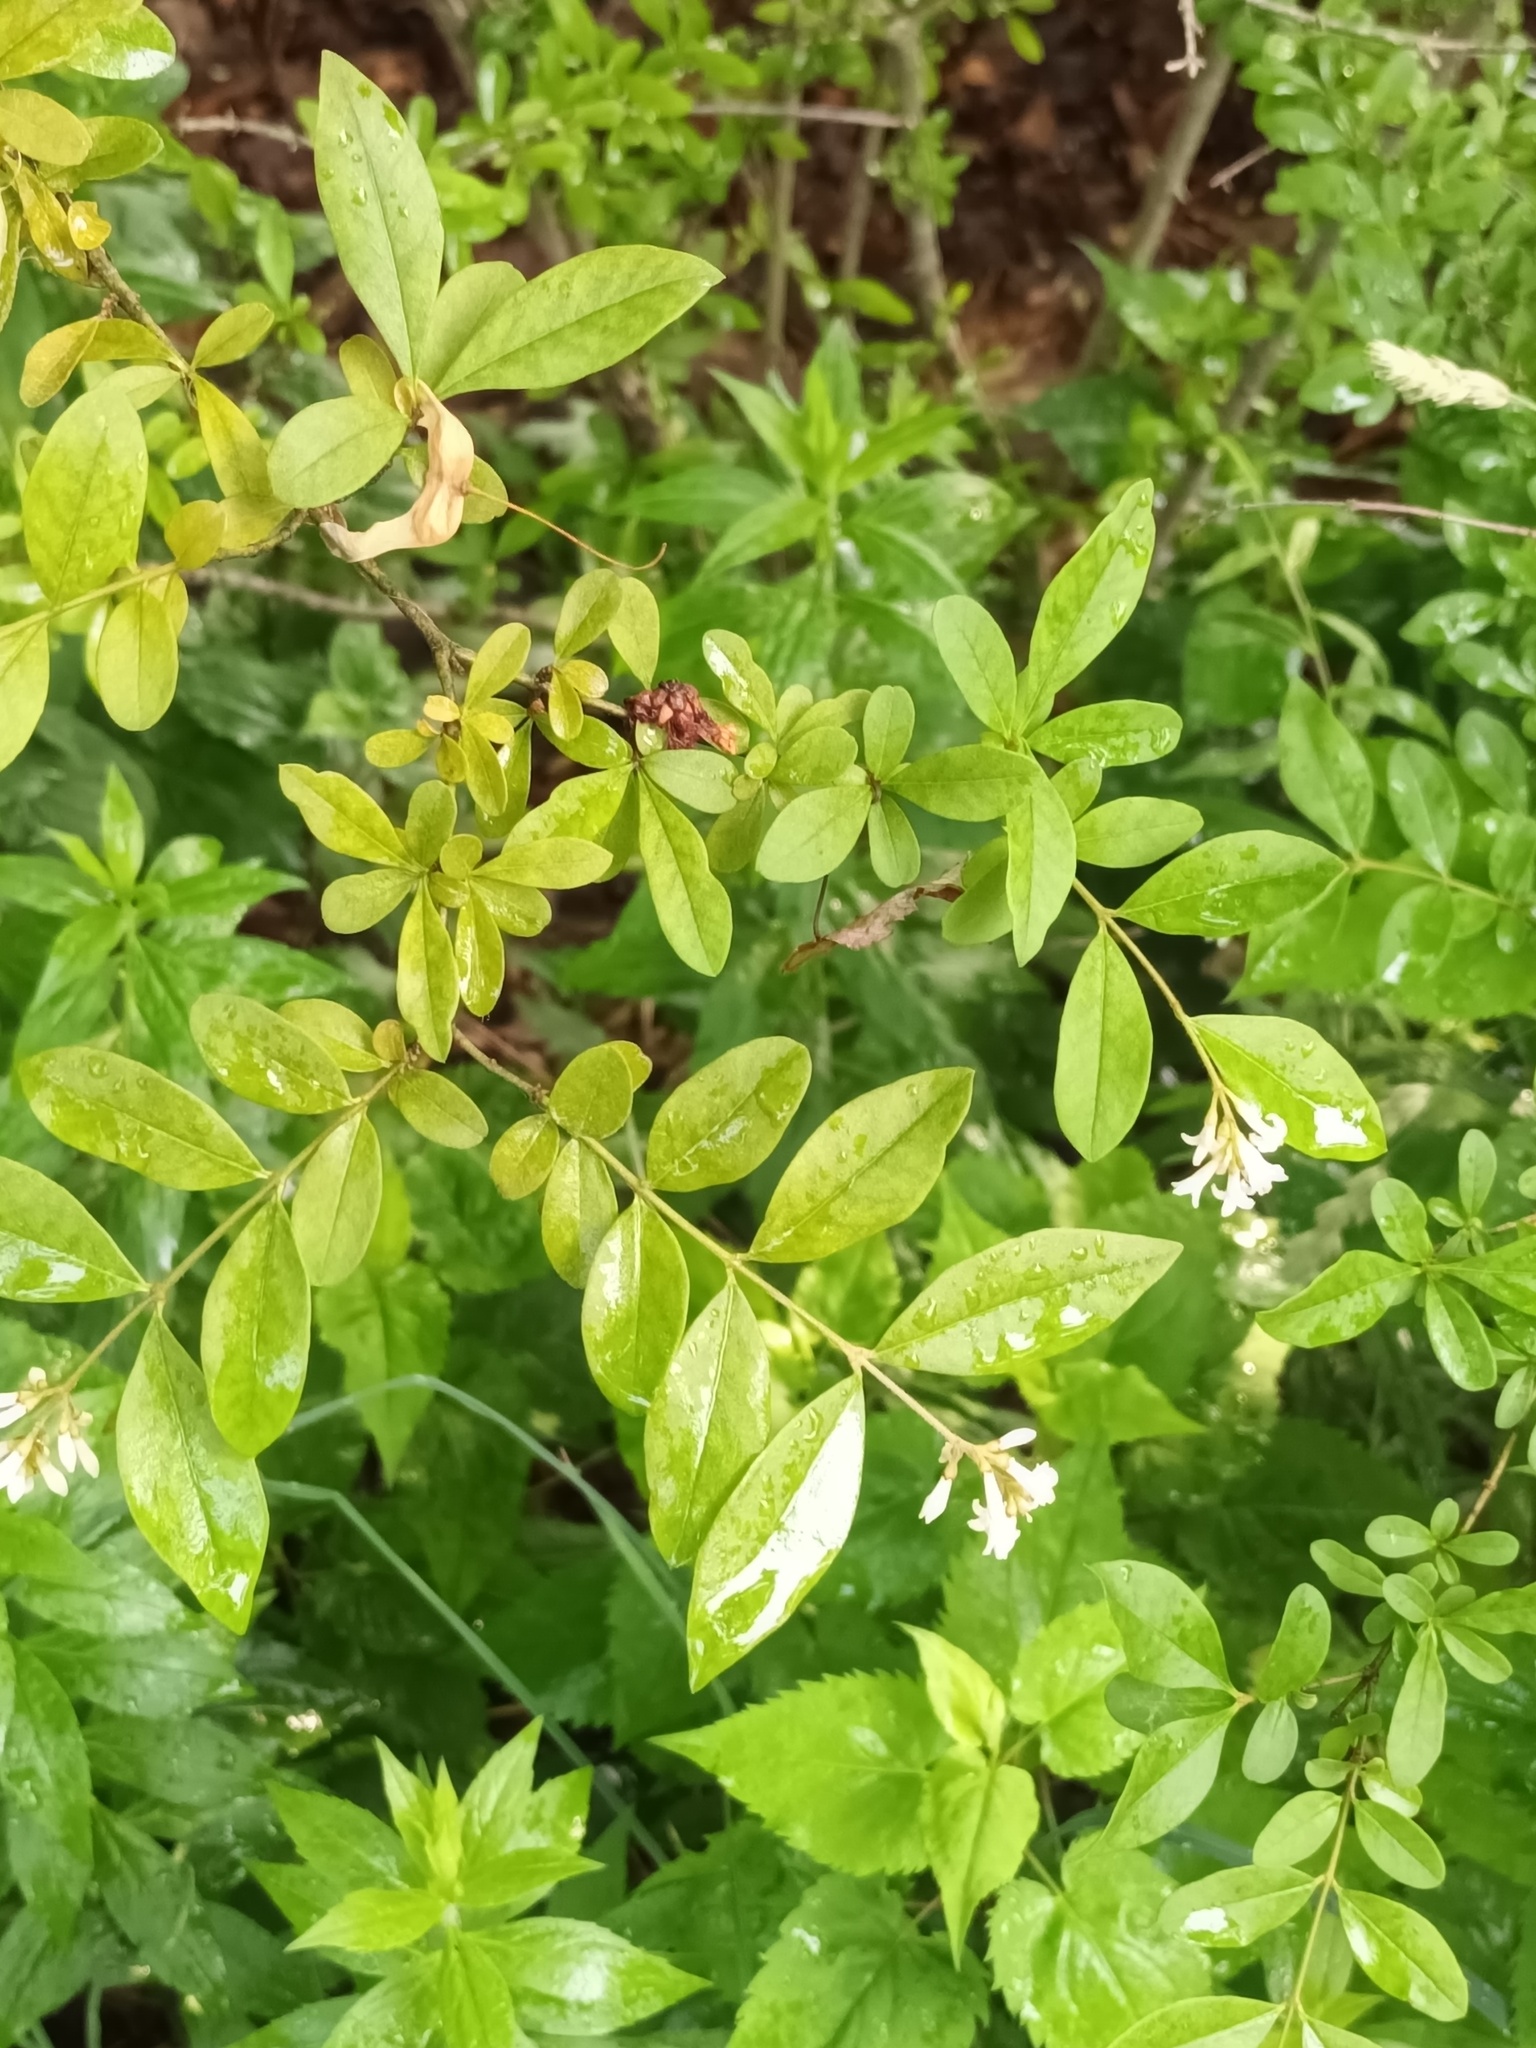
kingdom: Plantae
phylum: Tracheophyta
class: Magnoliopsida
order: Lamiales
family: Oleaceae
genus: Ligustrum
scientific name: Ligustrum obtusifolium
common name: Border privet
